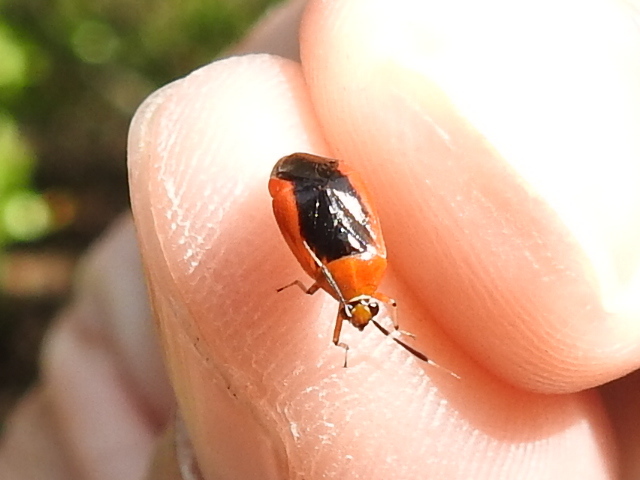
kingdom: Animalia
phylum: Arthropoda
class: Insecta
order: Hemiptera
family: Miridae
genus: Metriorrhynchomiris
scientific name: Metriorrhynchomiris dislocatus
